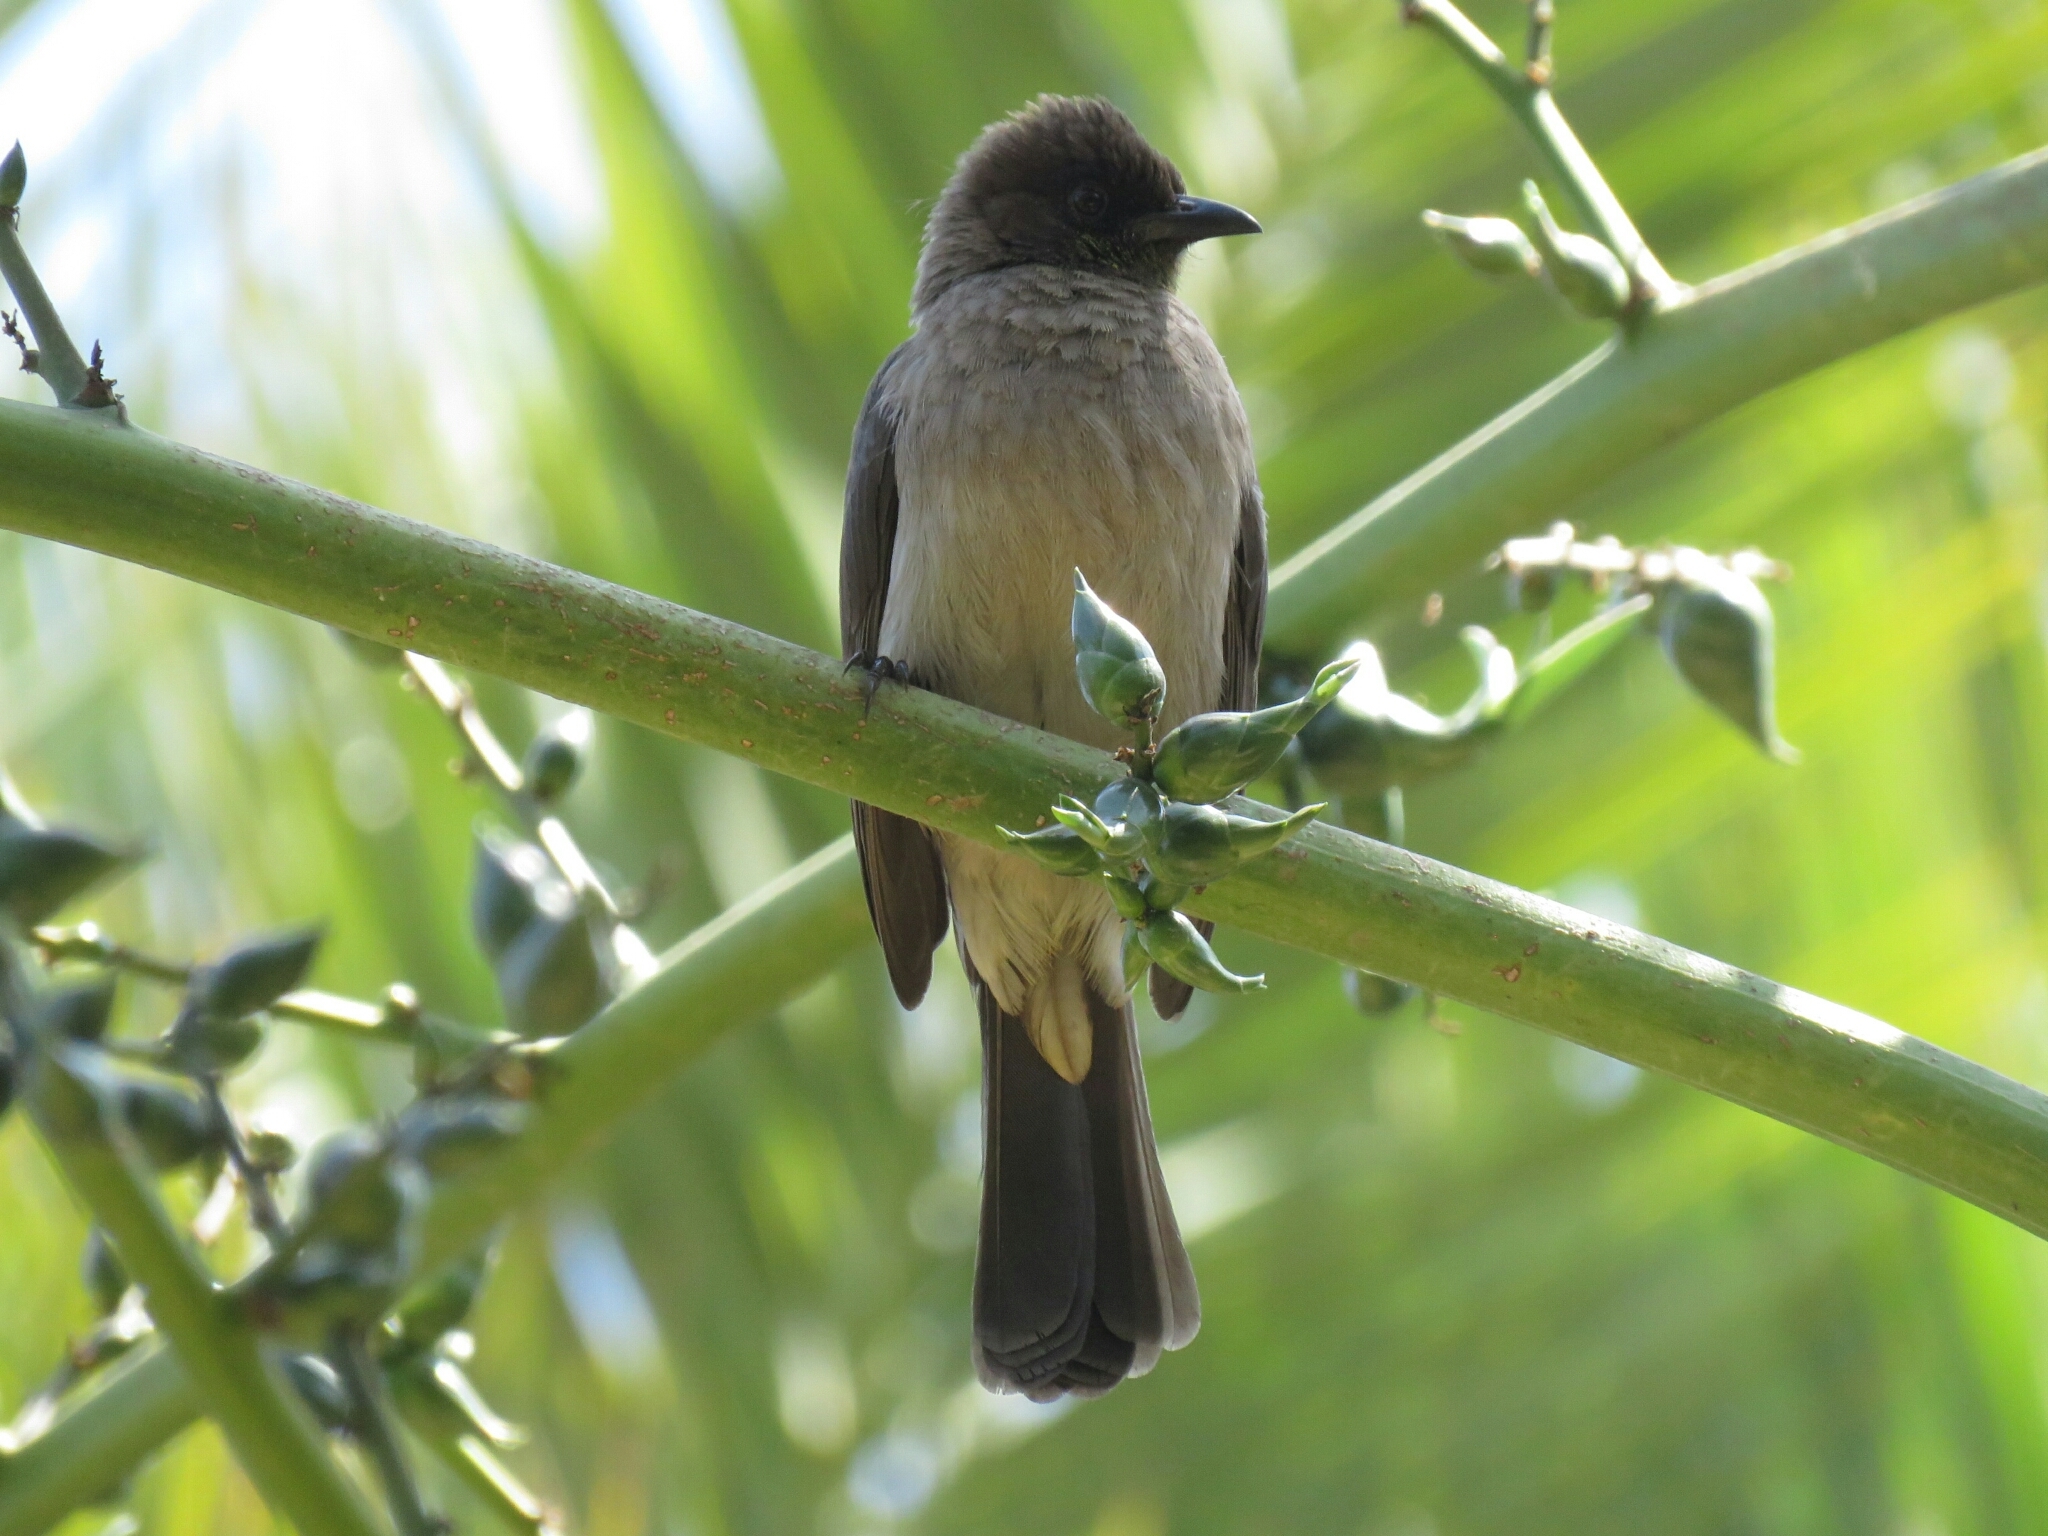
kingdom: Animalia
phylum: Chordata
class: Aves
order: Passeriformes
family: Pycnonotidae
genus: Pycnonotus
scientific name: Pycnonotus barbatus
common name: Common bulbul
